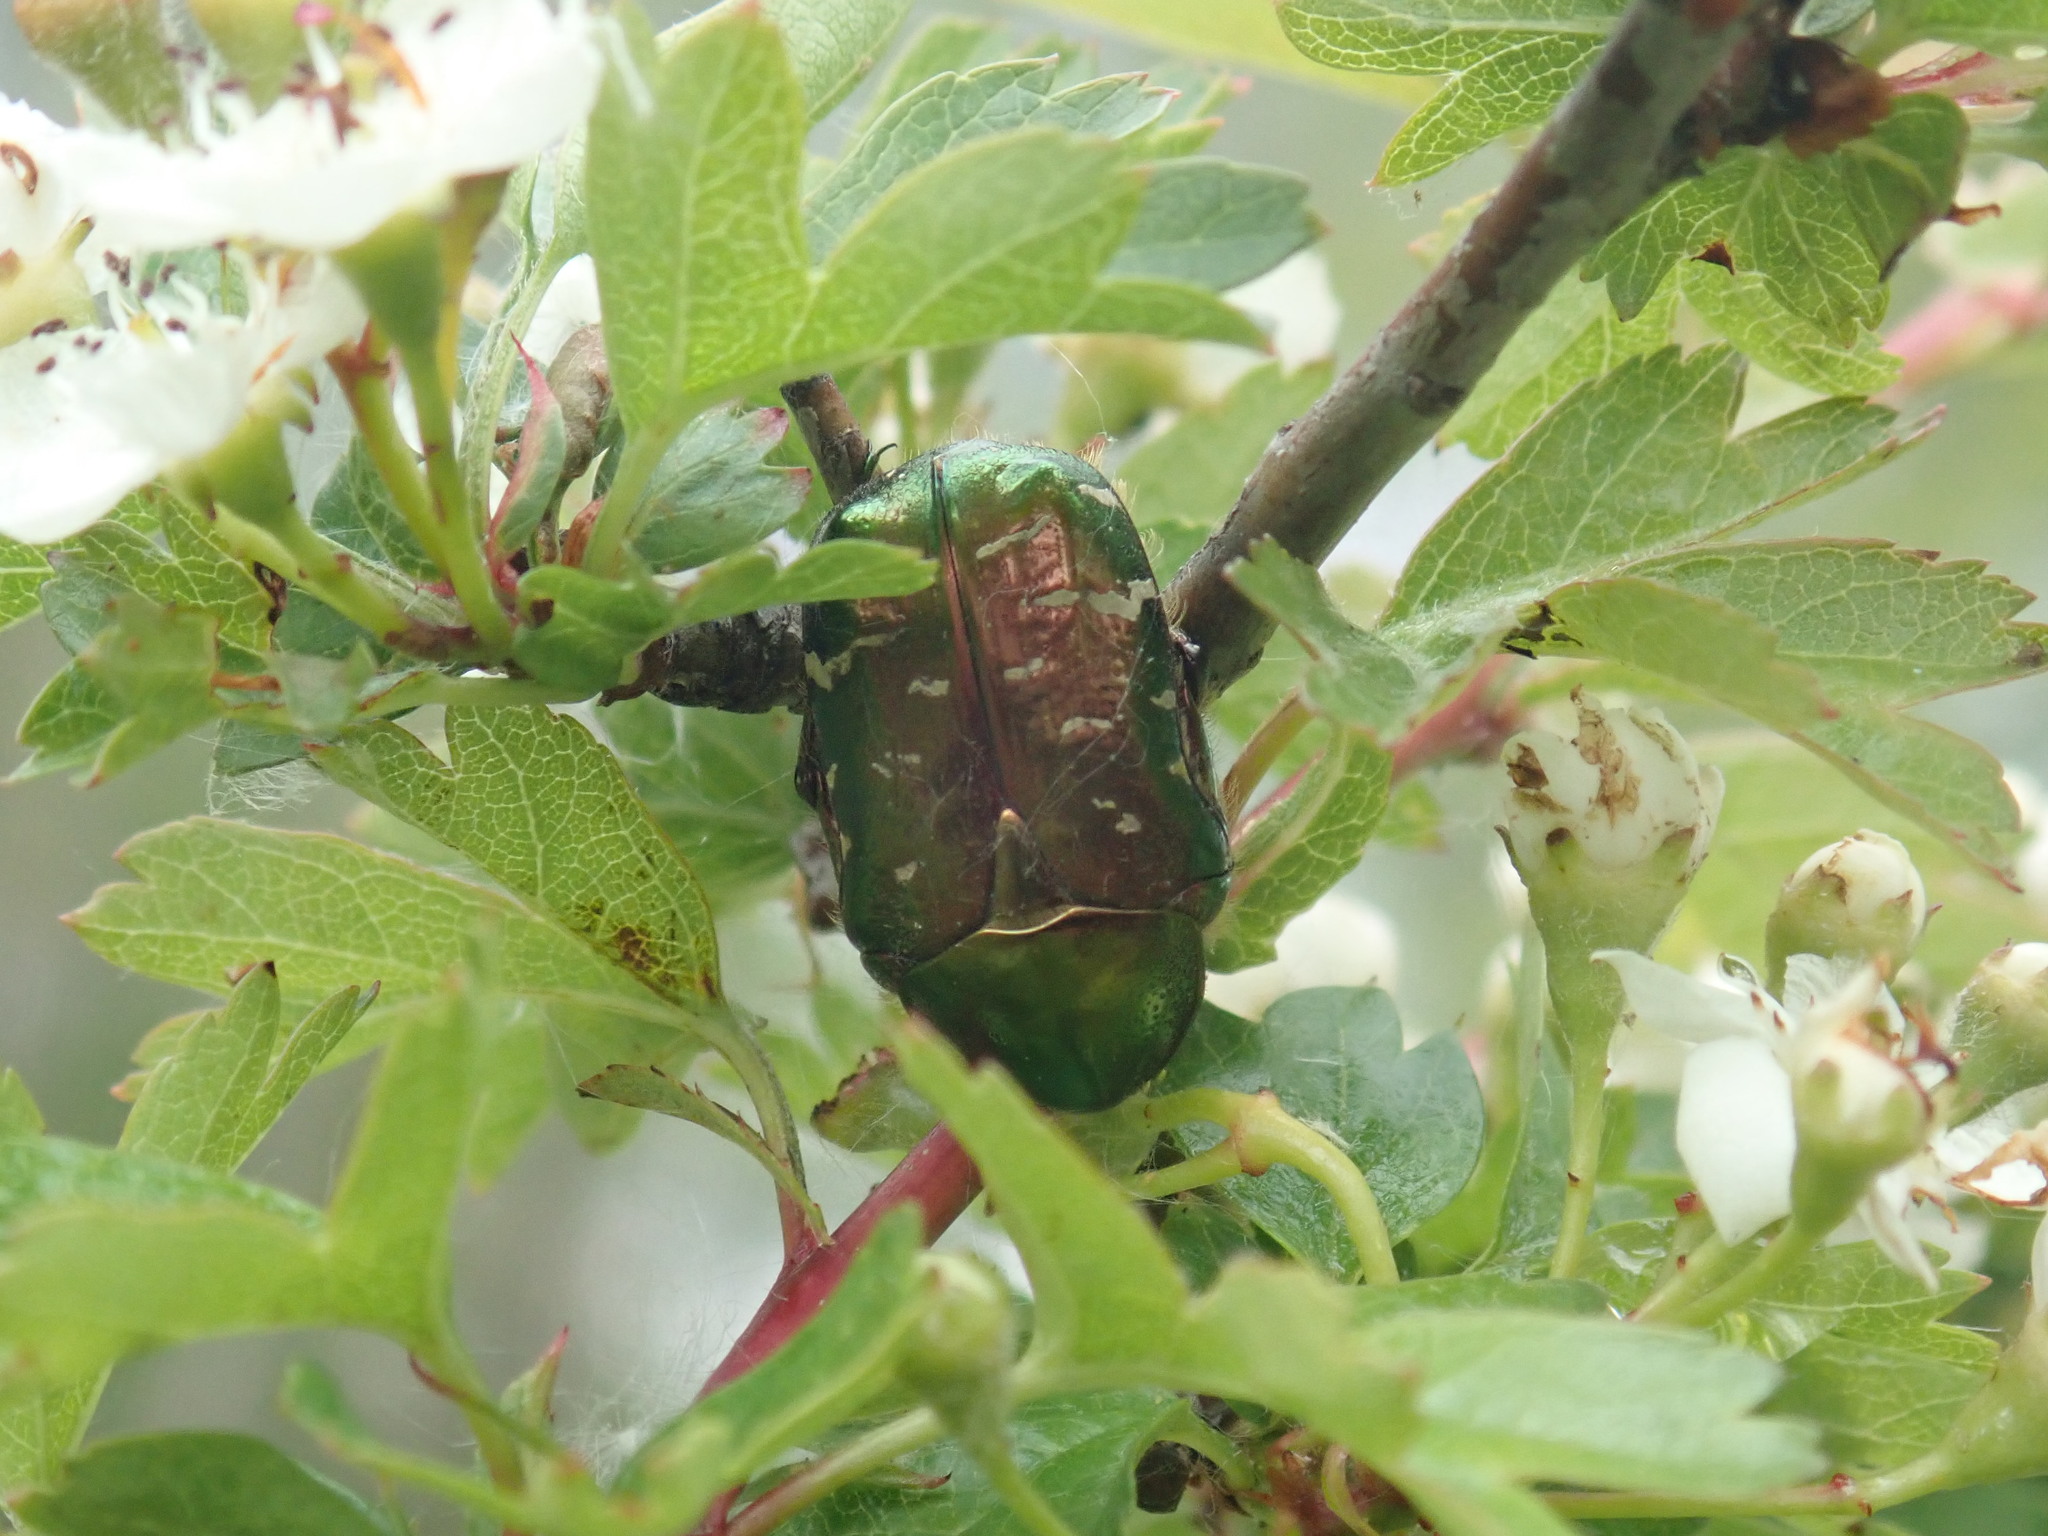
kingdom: Animalia
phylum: Arthropoda
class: Insecta
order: Coleoptera
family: Scarabaeidae
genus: Cetonia
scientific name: Cetonia aurata
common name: Rose chafer
